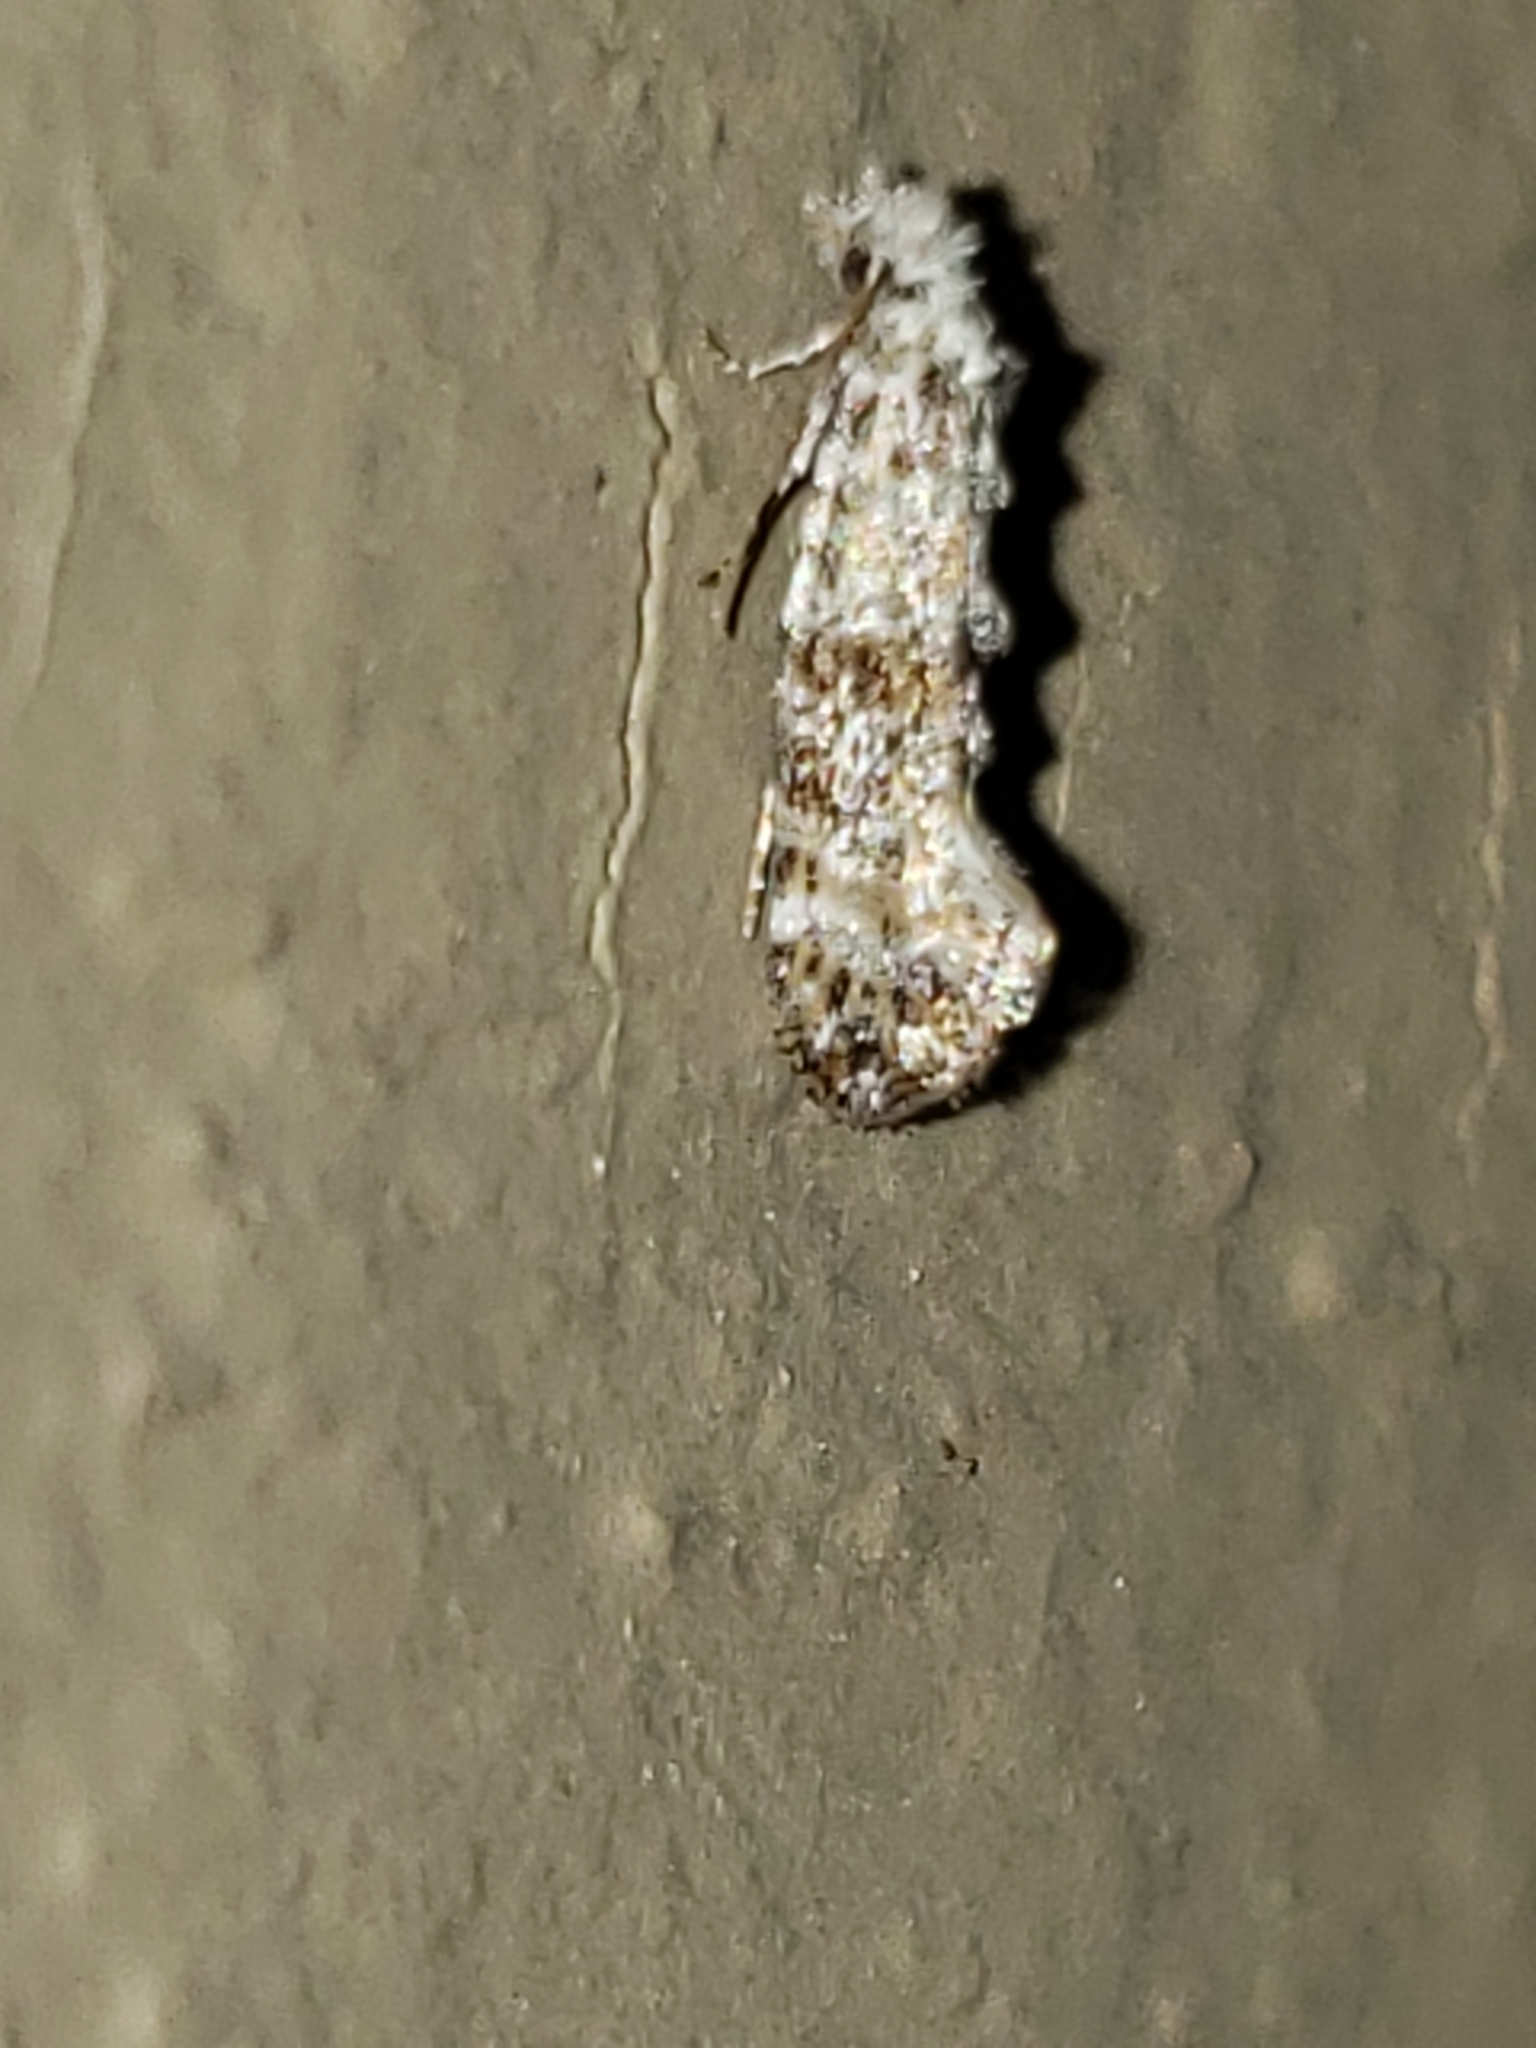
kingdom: Animalia
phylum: Arthropoda
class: Insecta
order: Lepidoptera
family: Tineidae
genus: Xylesthia
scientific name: Xylesthia pruniramiella
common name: Clemens' bark moth
